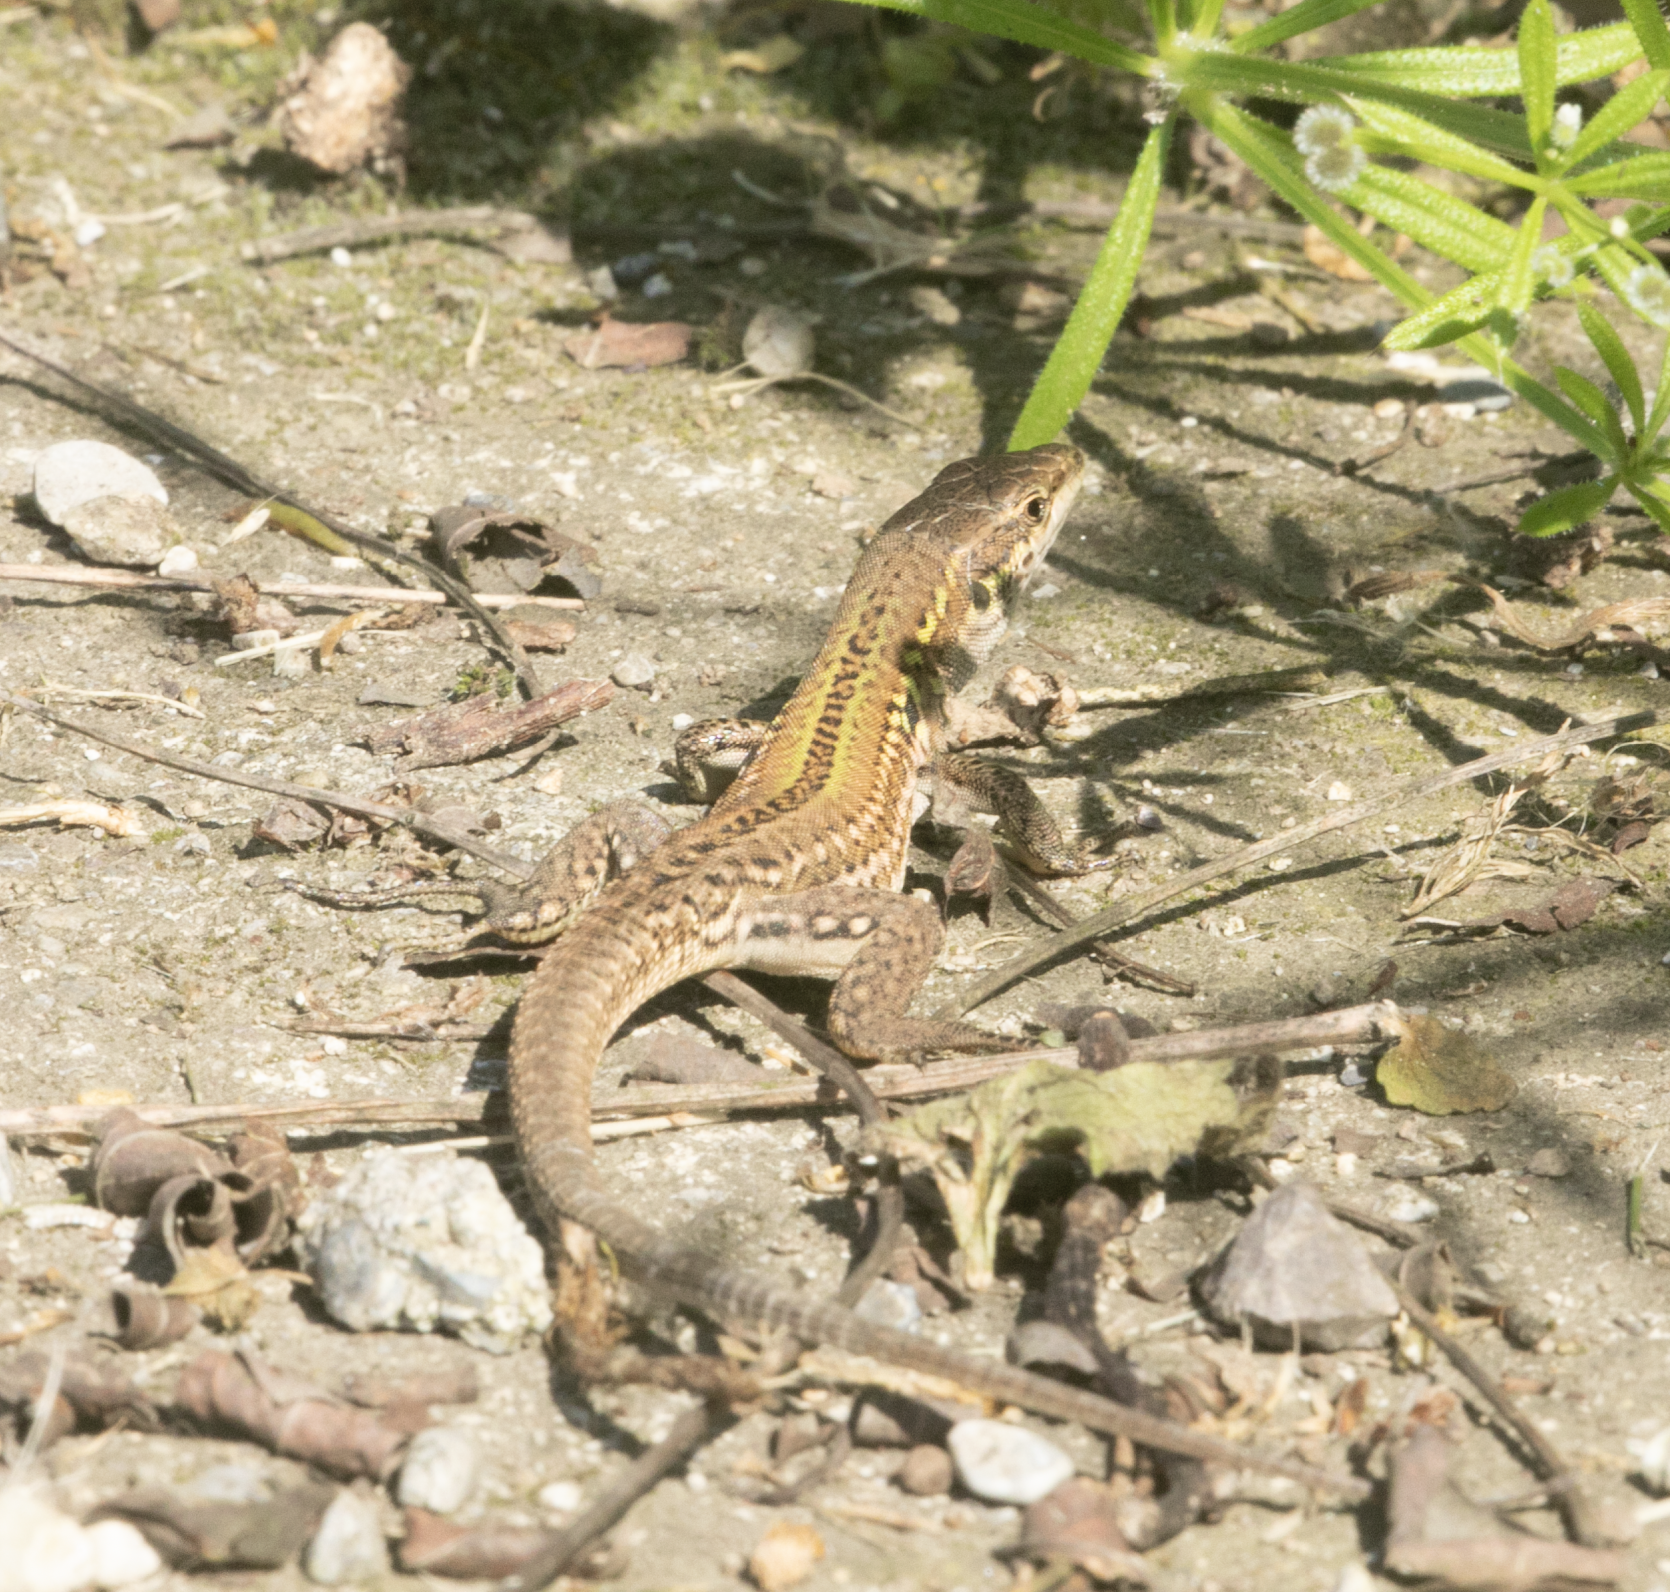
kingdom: Animalia
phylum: Chordata
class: Squamata
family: Lacertidae
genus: Podarcis
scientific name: Podarcis siculus
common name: Italian wall lizard
